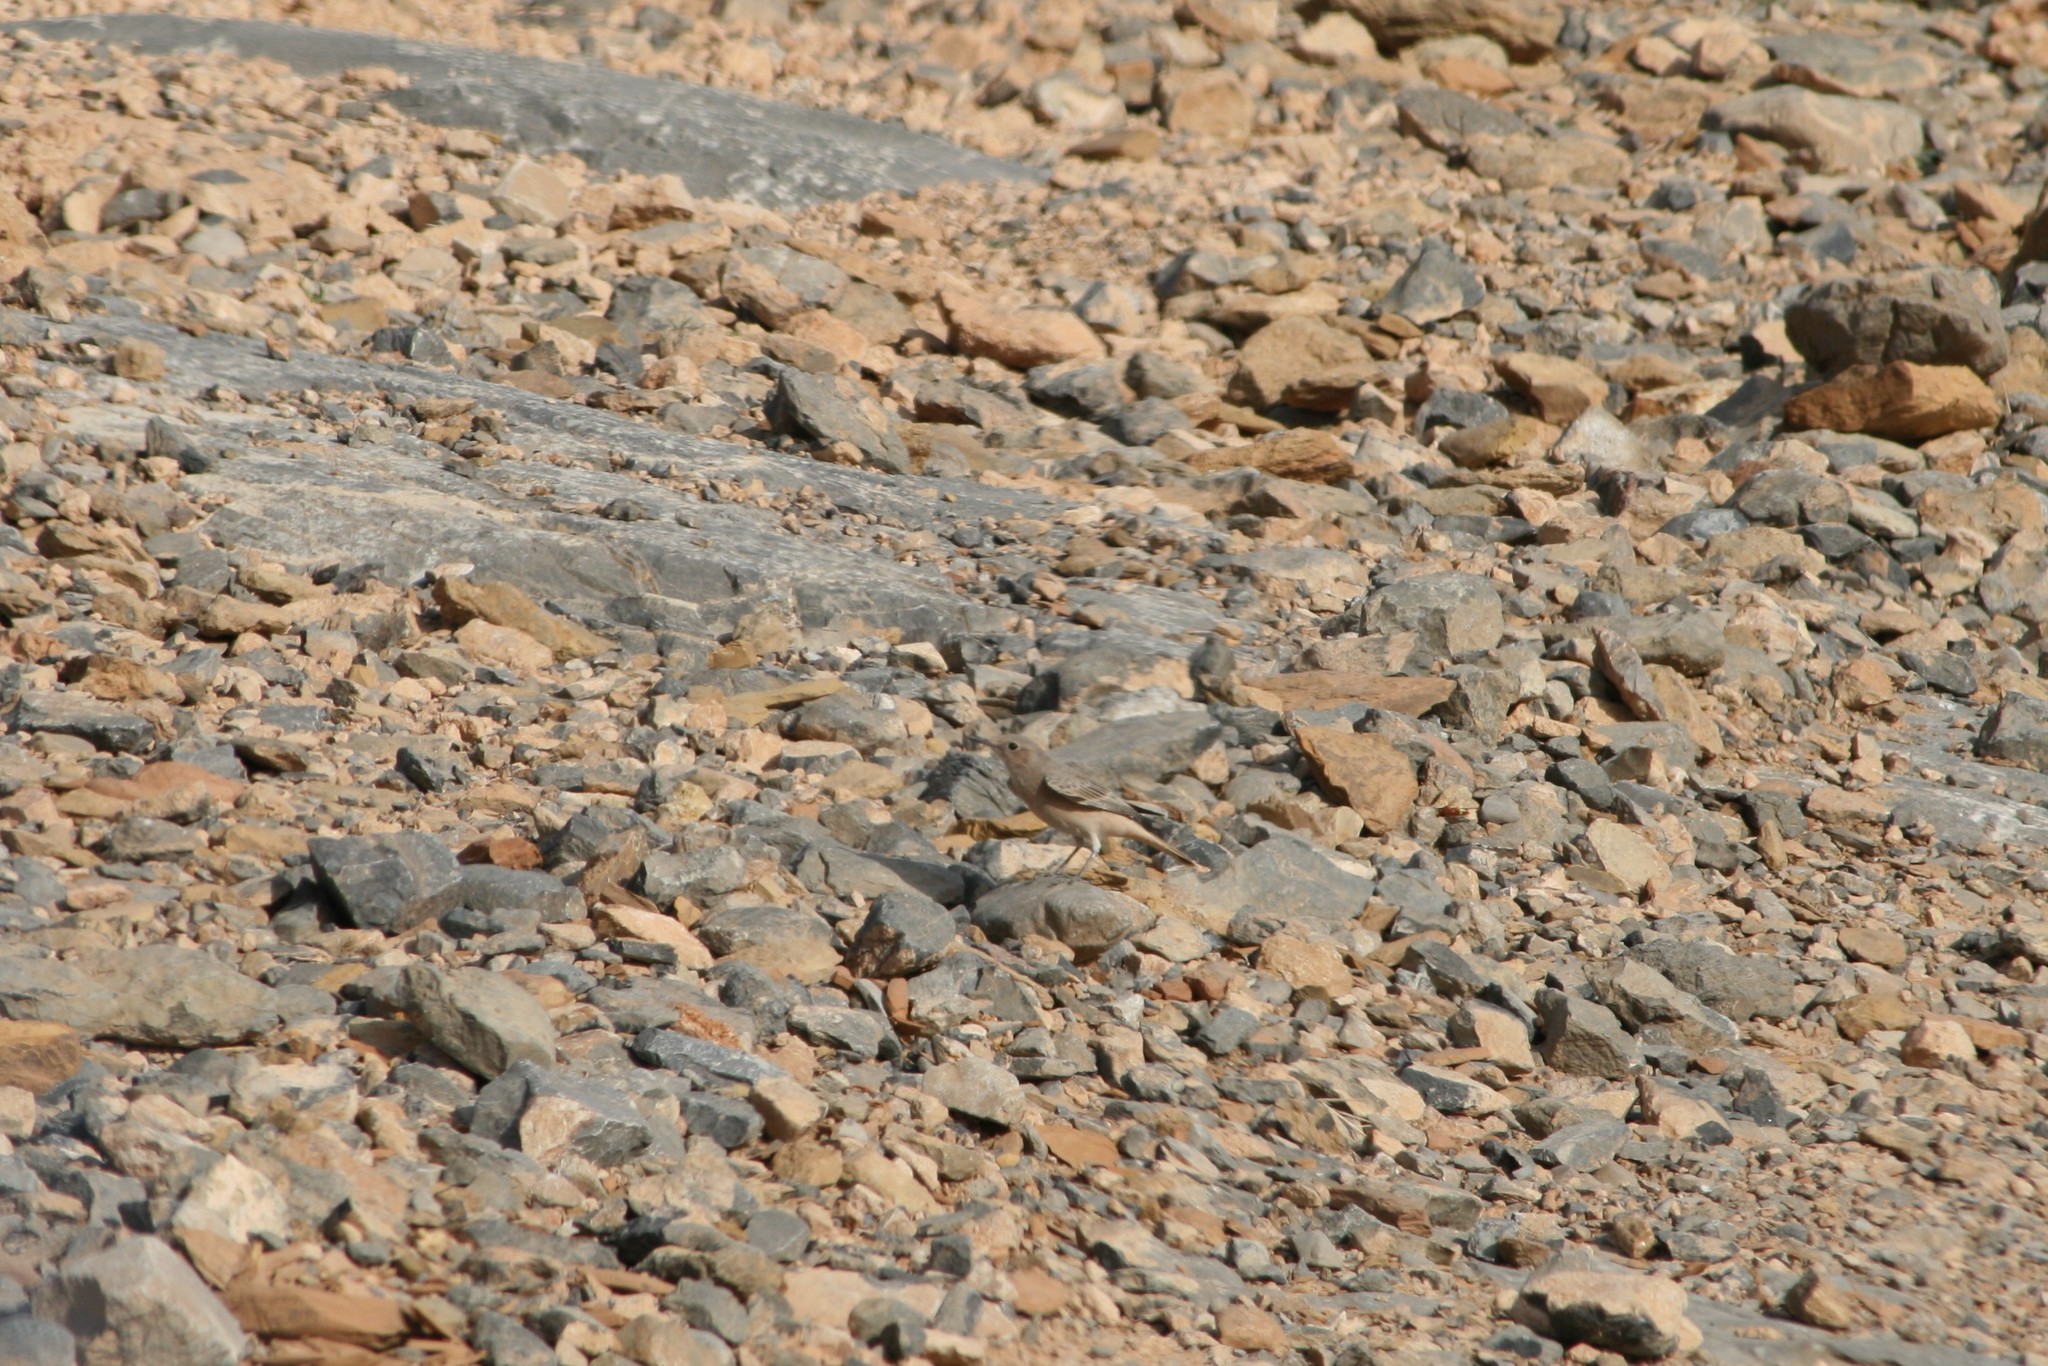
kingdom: Animalia
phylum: Chordata
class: Aves
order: Passeriformes
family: Muscicapidae
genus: Oenanthe
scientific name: Oenanthe chrysopygia
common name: Red-tailed wheatear
